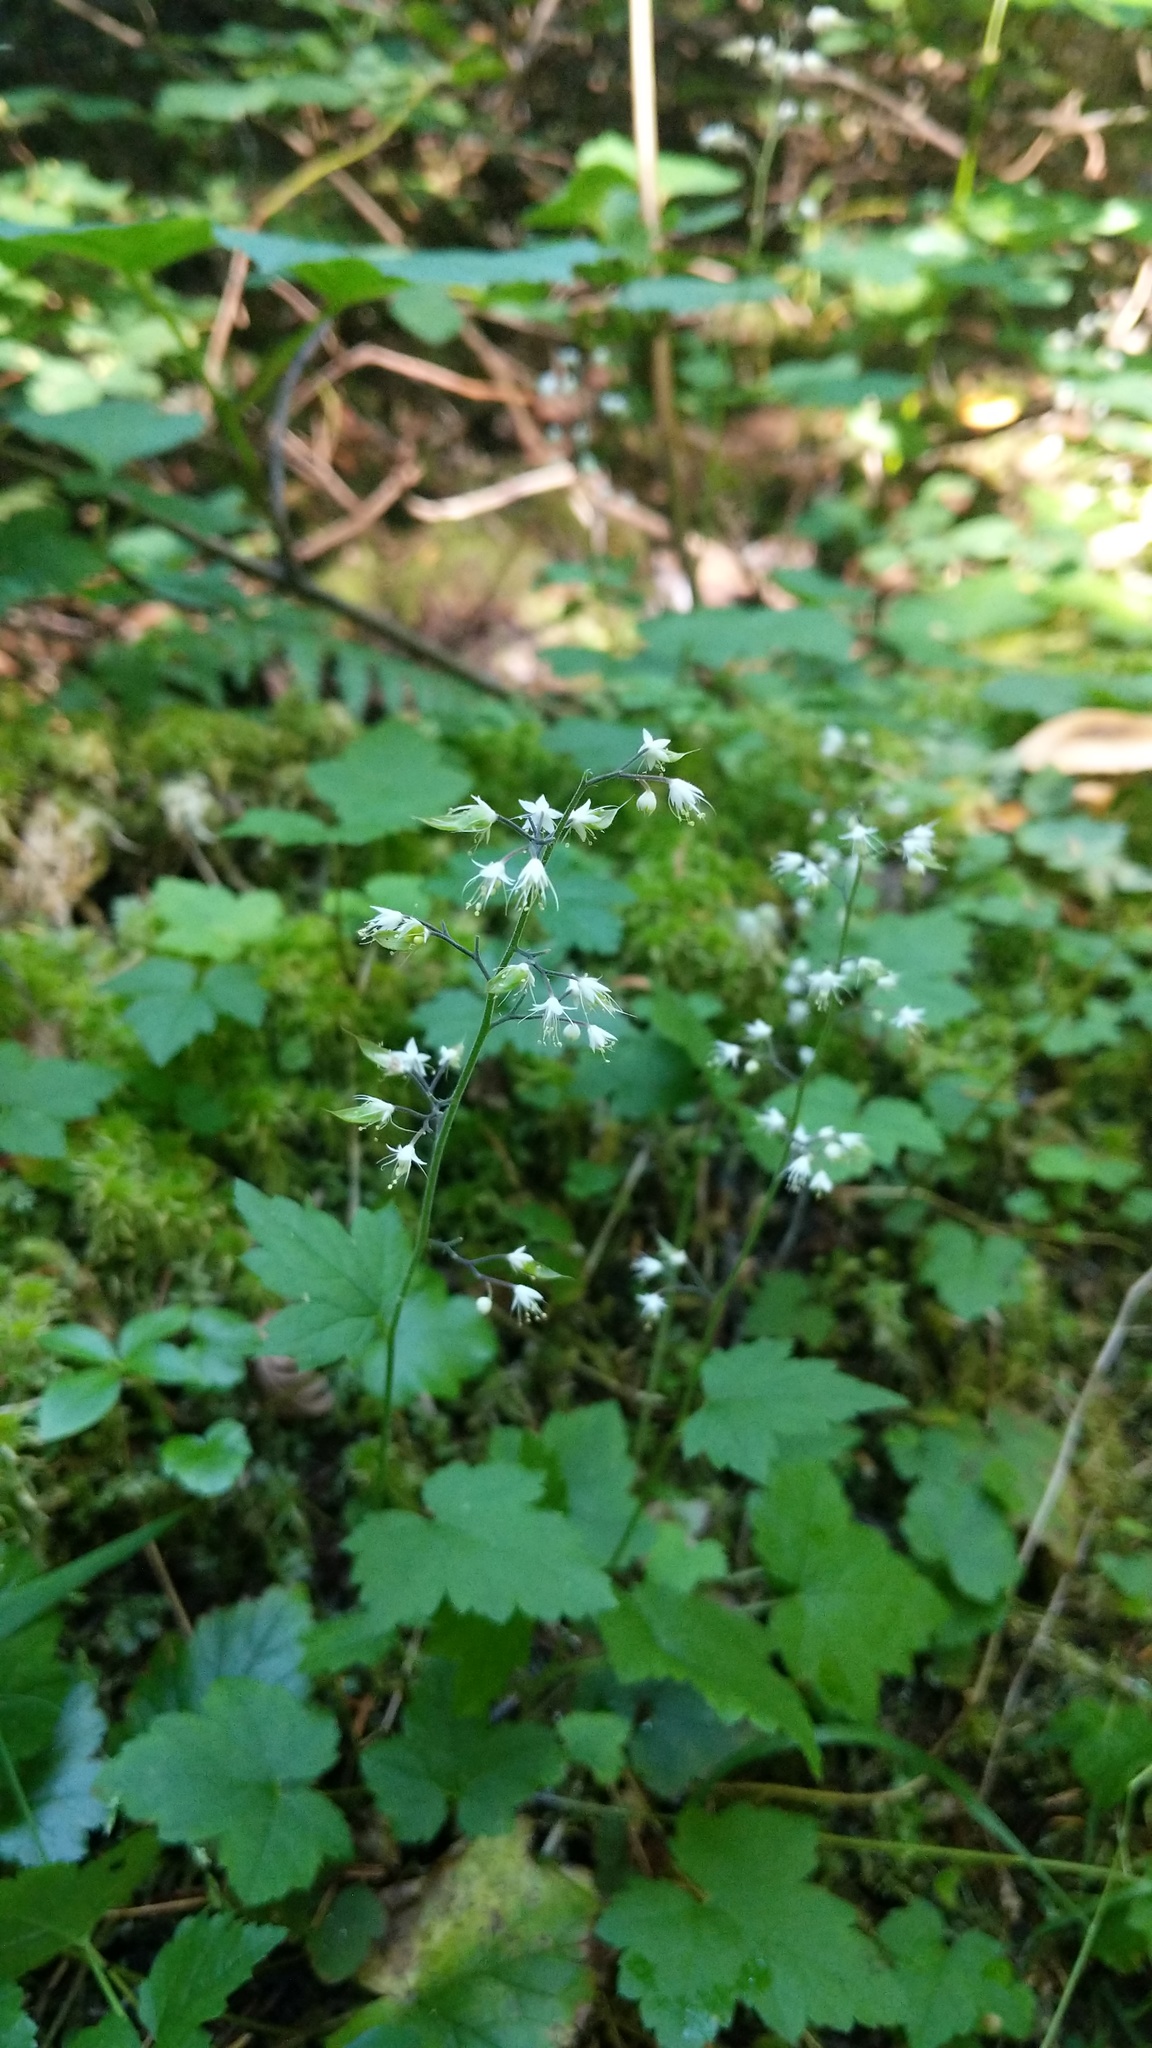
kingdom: Plantae
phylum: Tracheophyta
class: Magnoliopsida
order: Saxifragales
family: Saxifragaceae
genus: Tiarella
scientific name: Tiarella trifoliata
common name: Sugar-scoop
